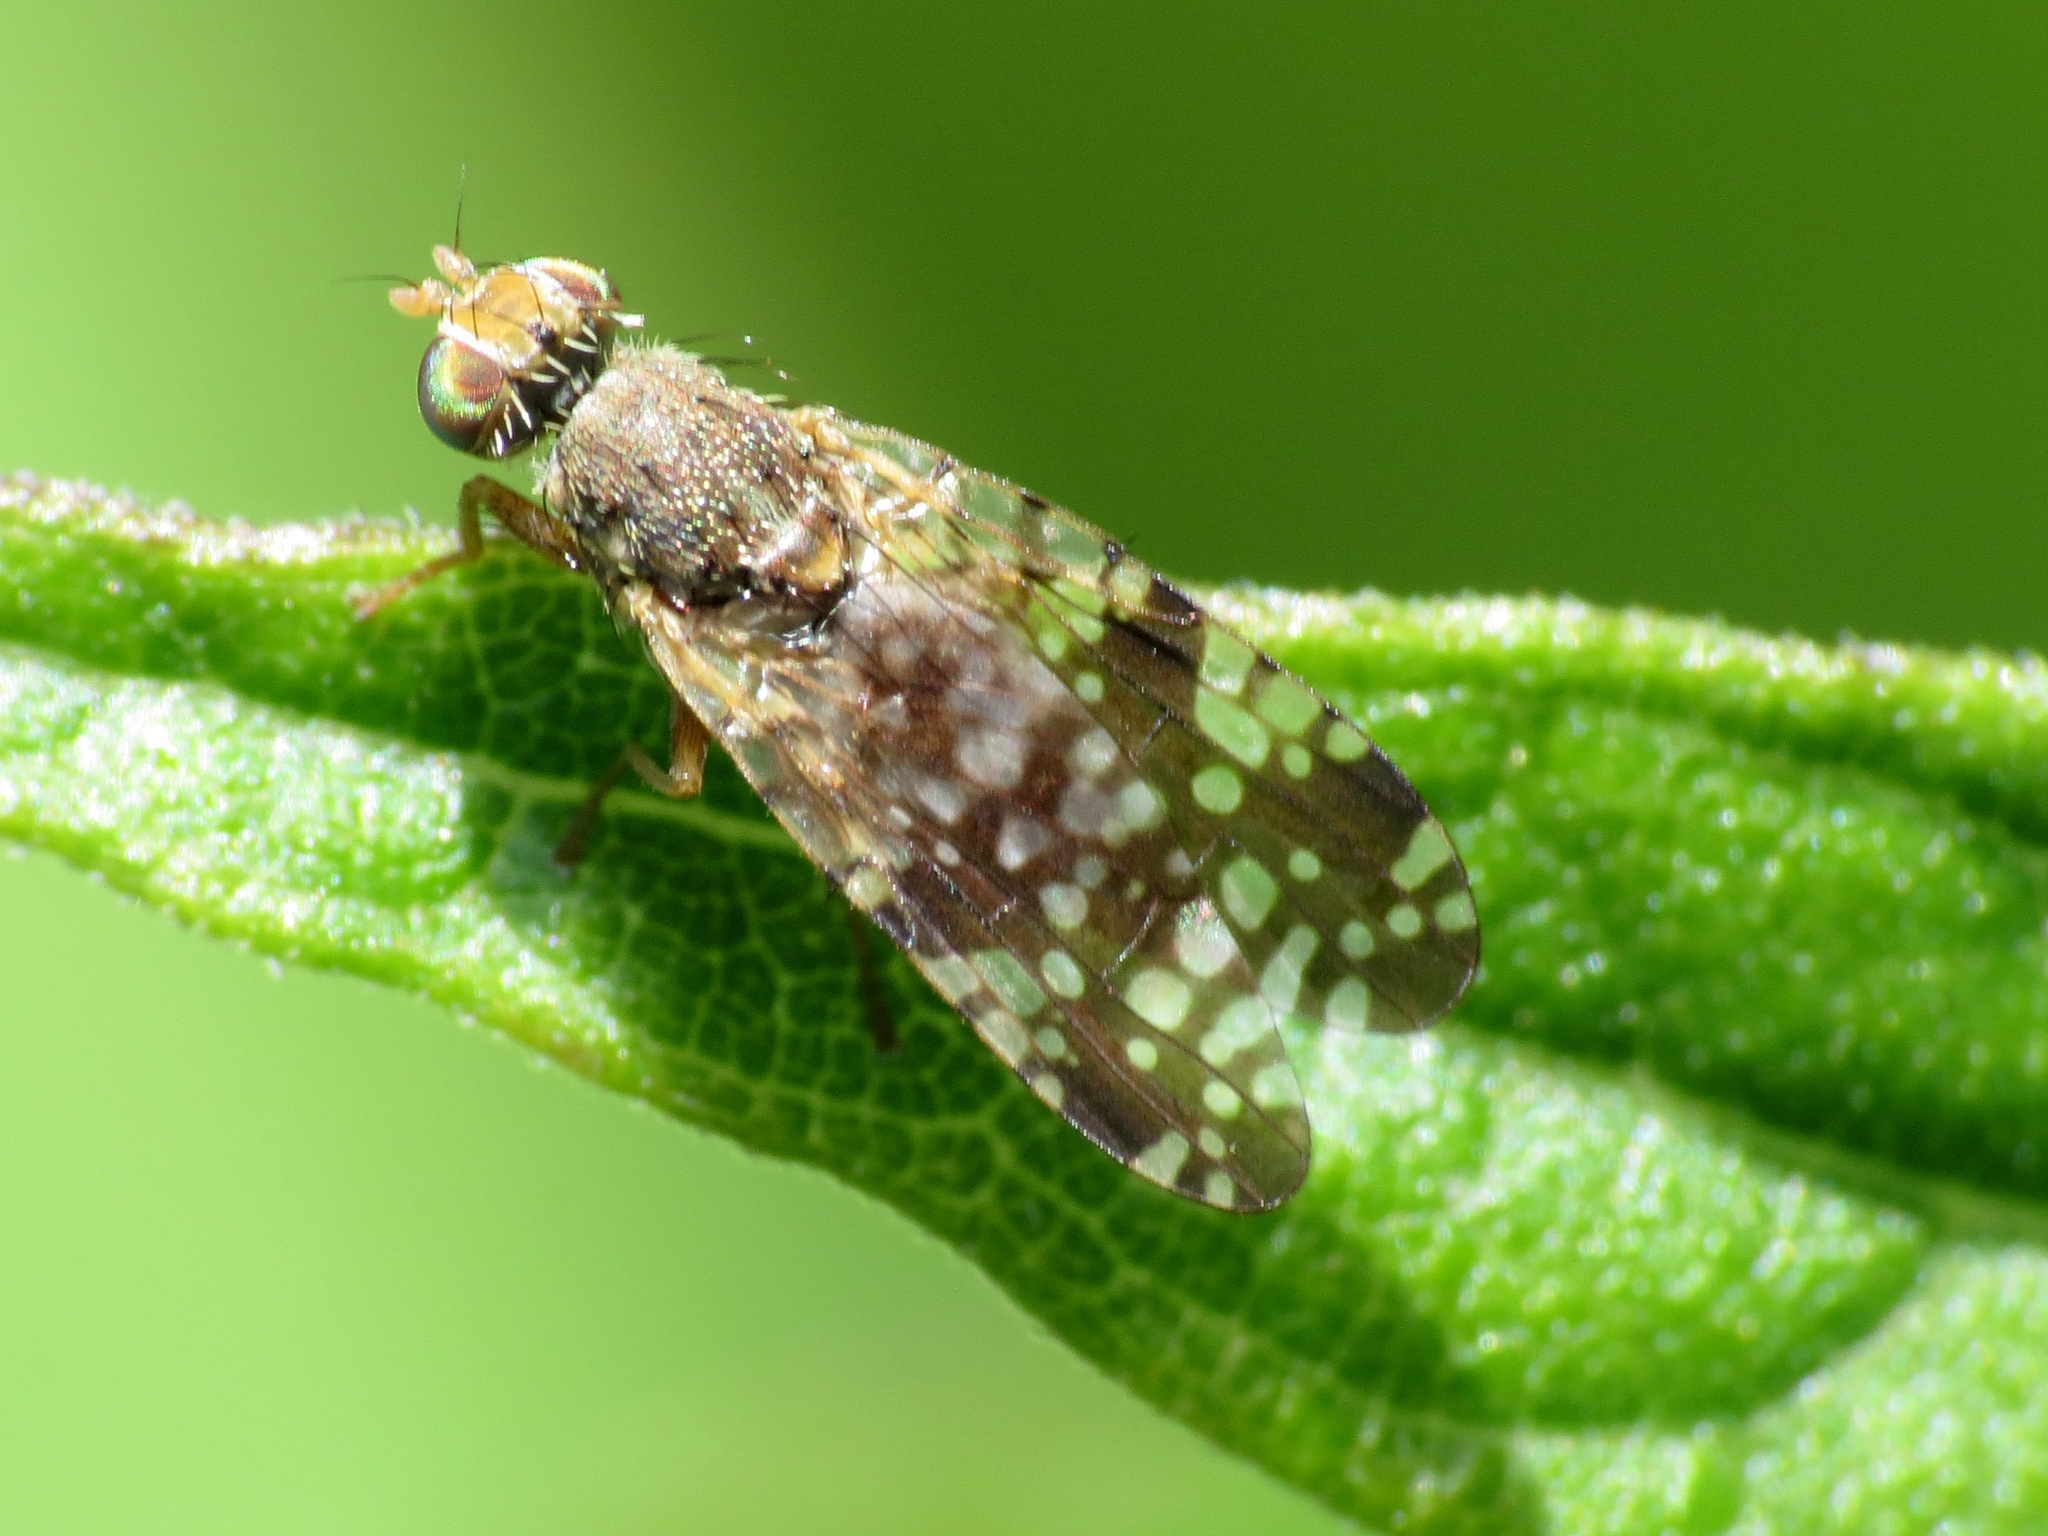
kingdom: Animalia
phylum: Arthropoda
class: Insecta
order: Diptera
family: Tephritidae
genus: Neotephritis
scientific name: Neotephritis finalis
